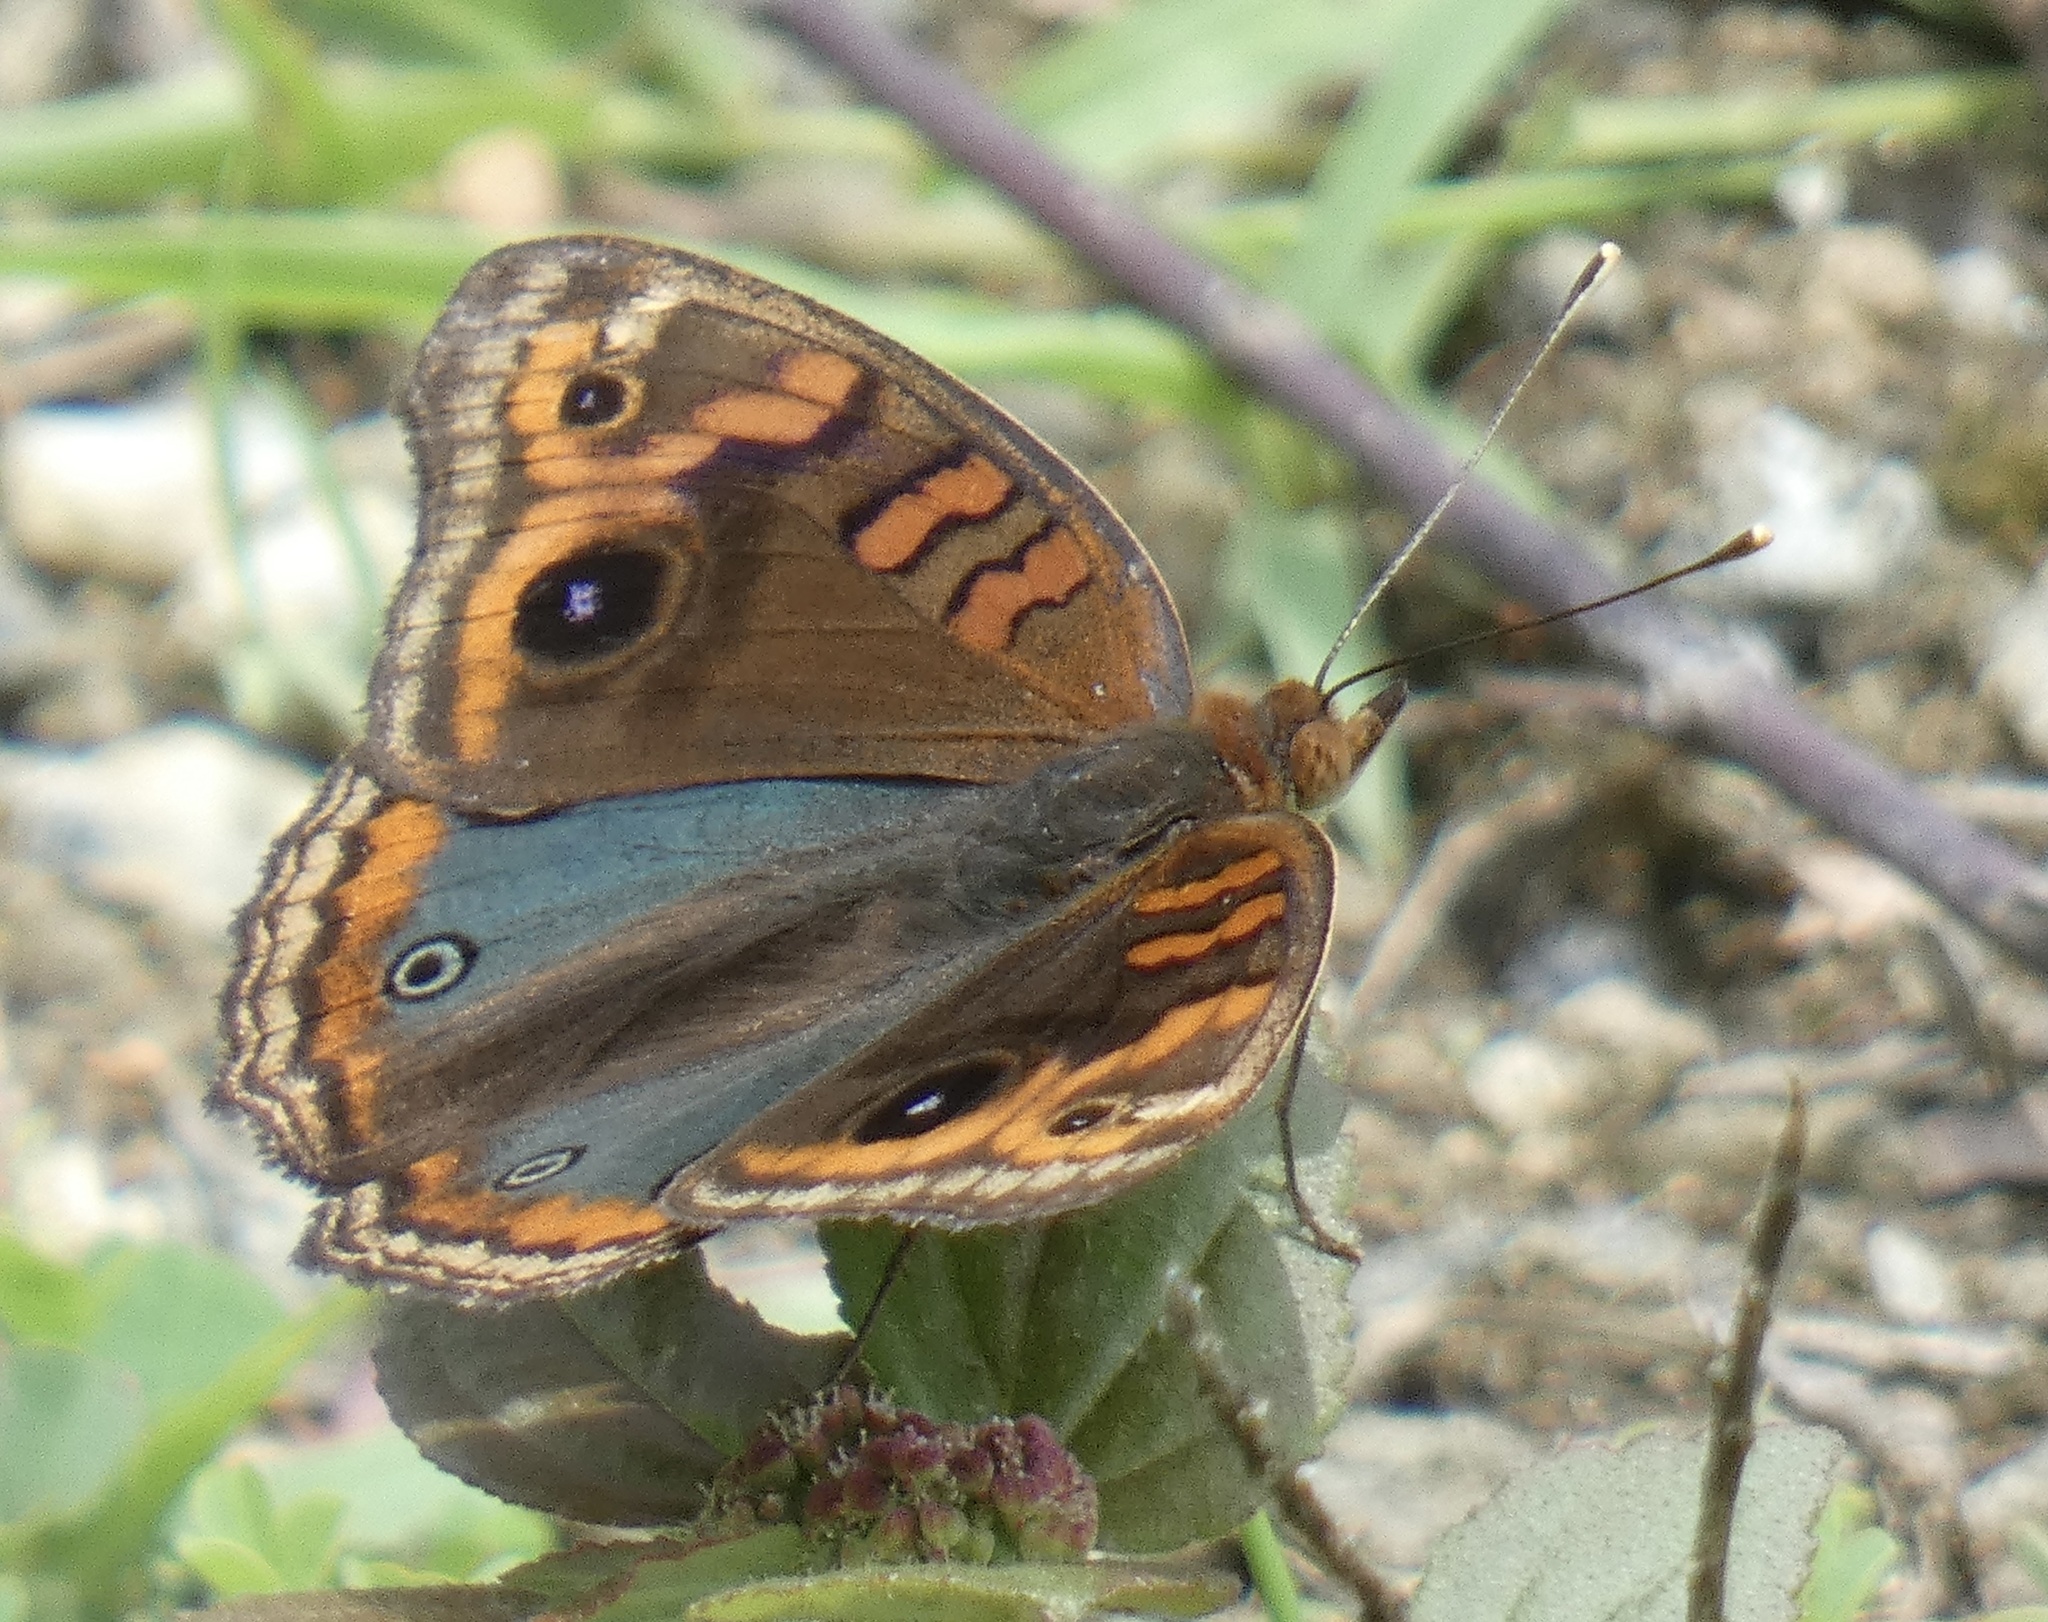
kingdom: Animalia
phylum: Arthropoda
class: Insecta
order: Lepidoptera
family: Nymphalidae
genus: Junonia
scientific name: Junonia evarete
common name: Black mangrove buckeye
